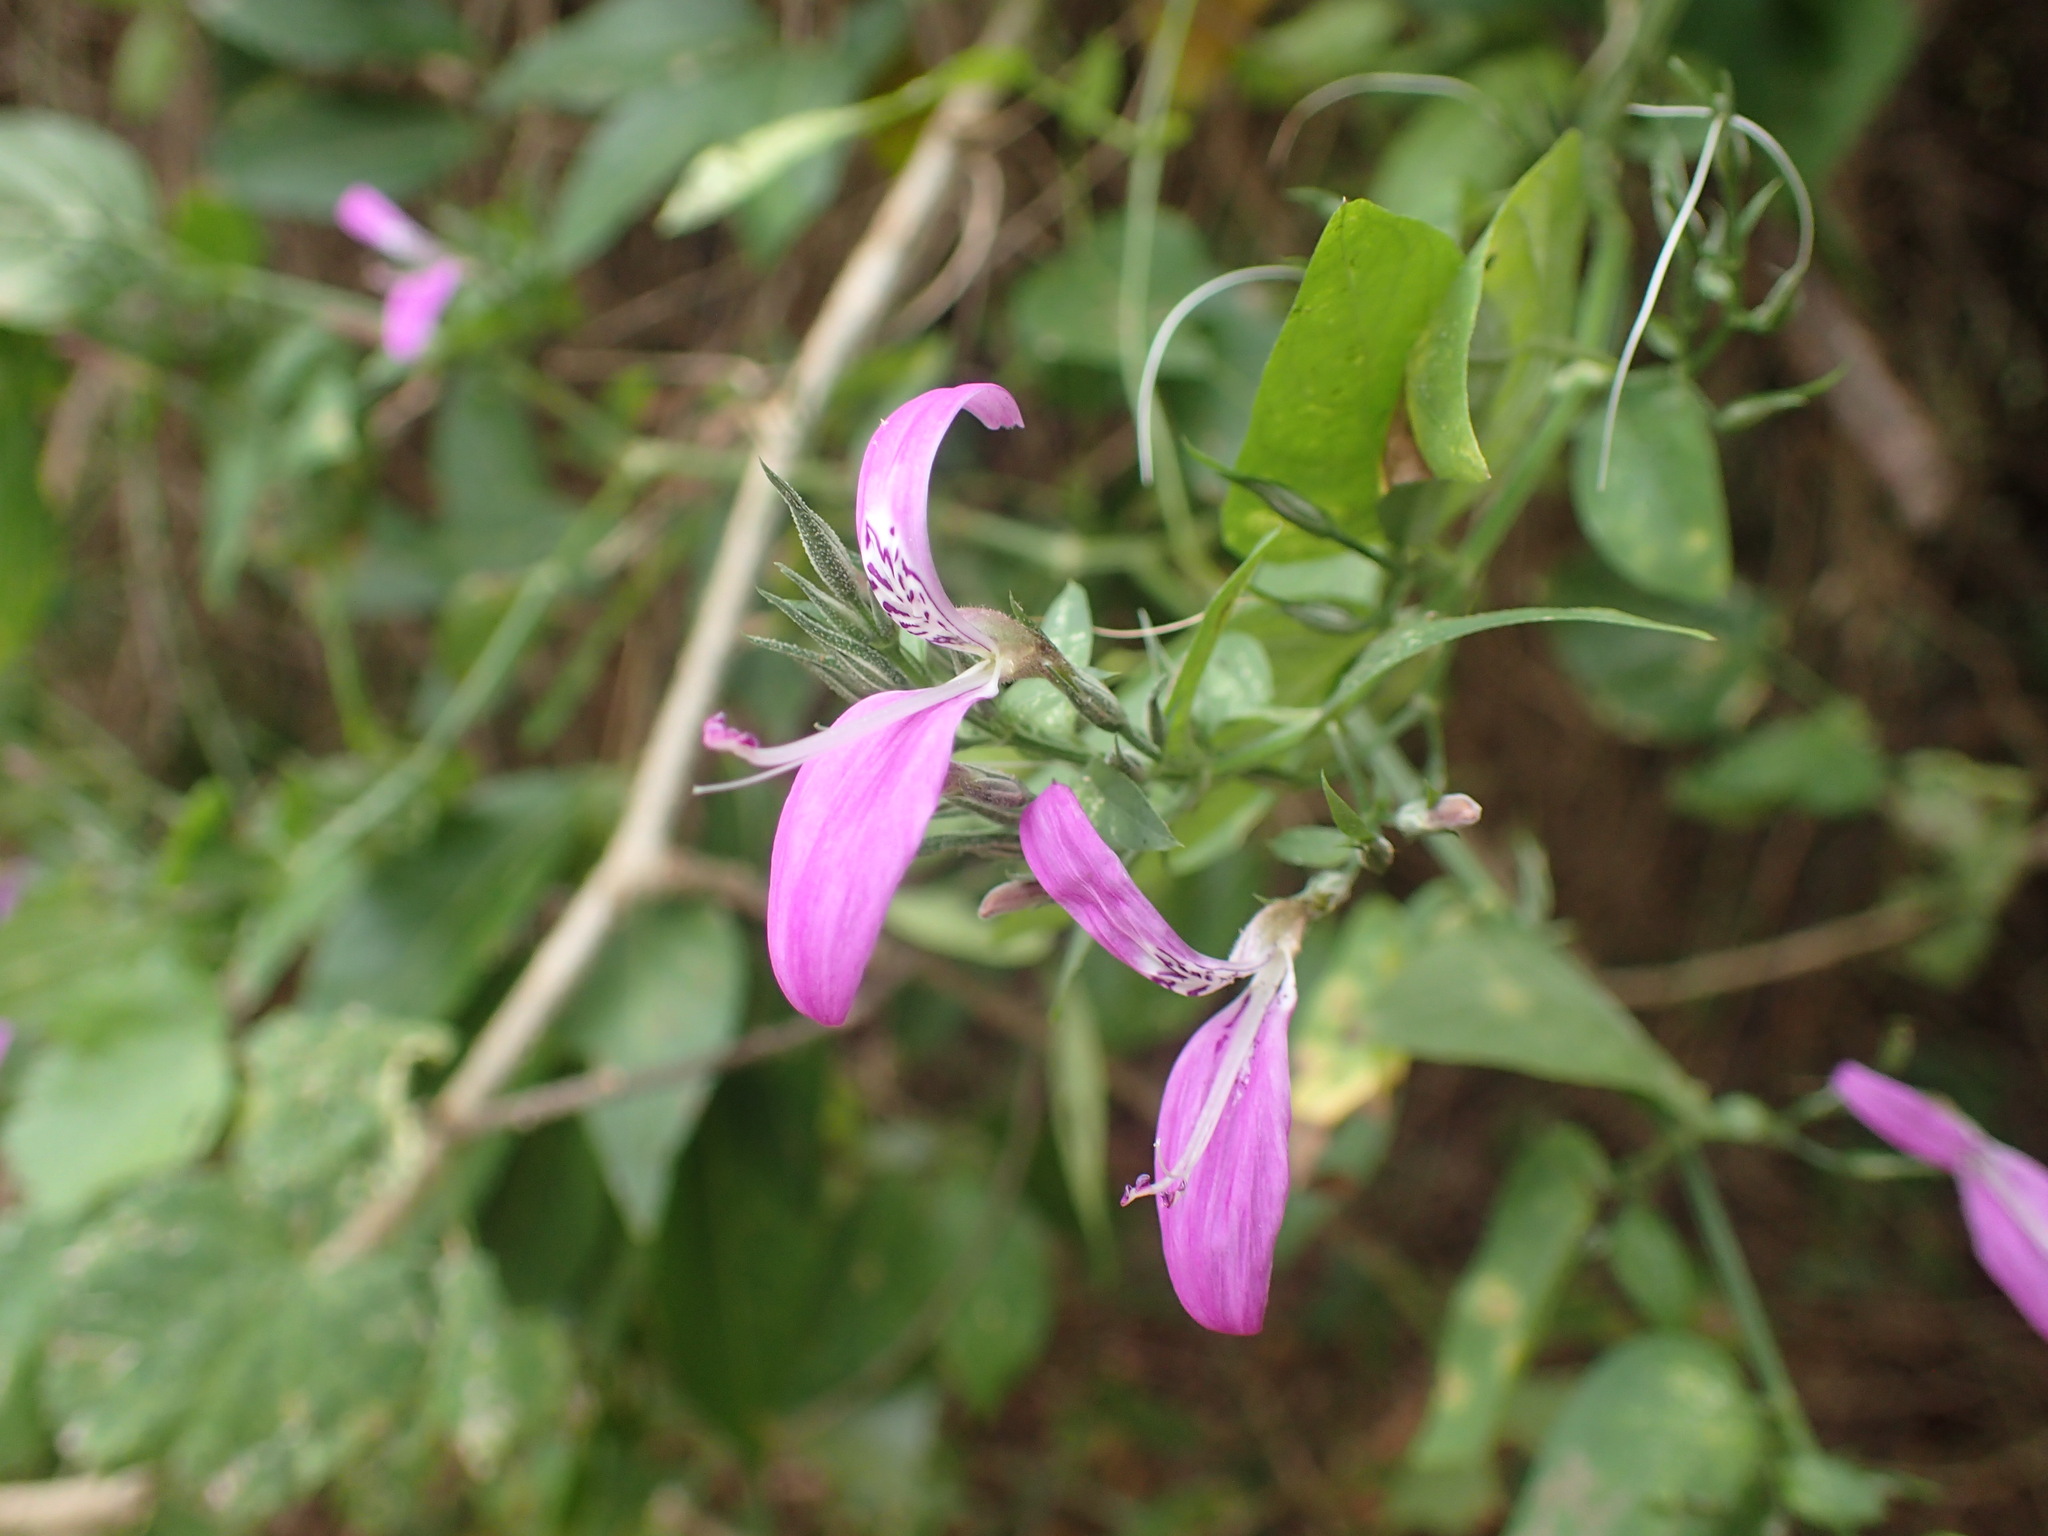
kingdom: Plantae
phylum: Tracheophyta
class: Magnoliopsida
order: Lamiales
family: Acanthaceae
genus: Dicliptera
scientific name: Dicliptera cernua
